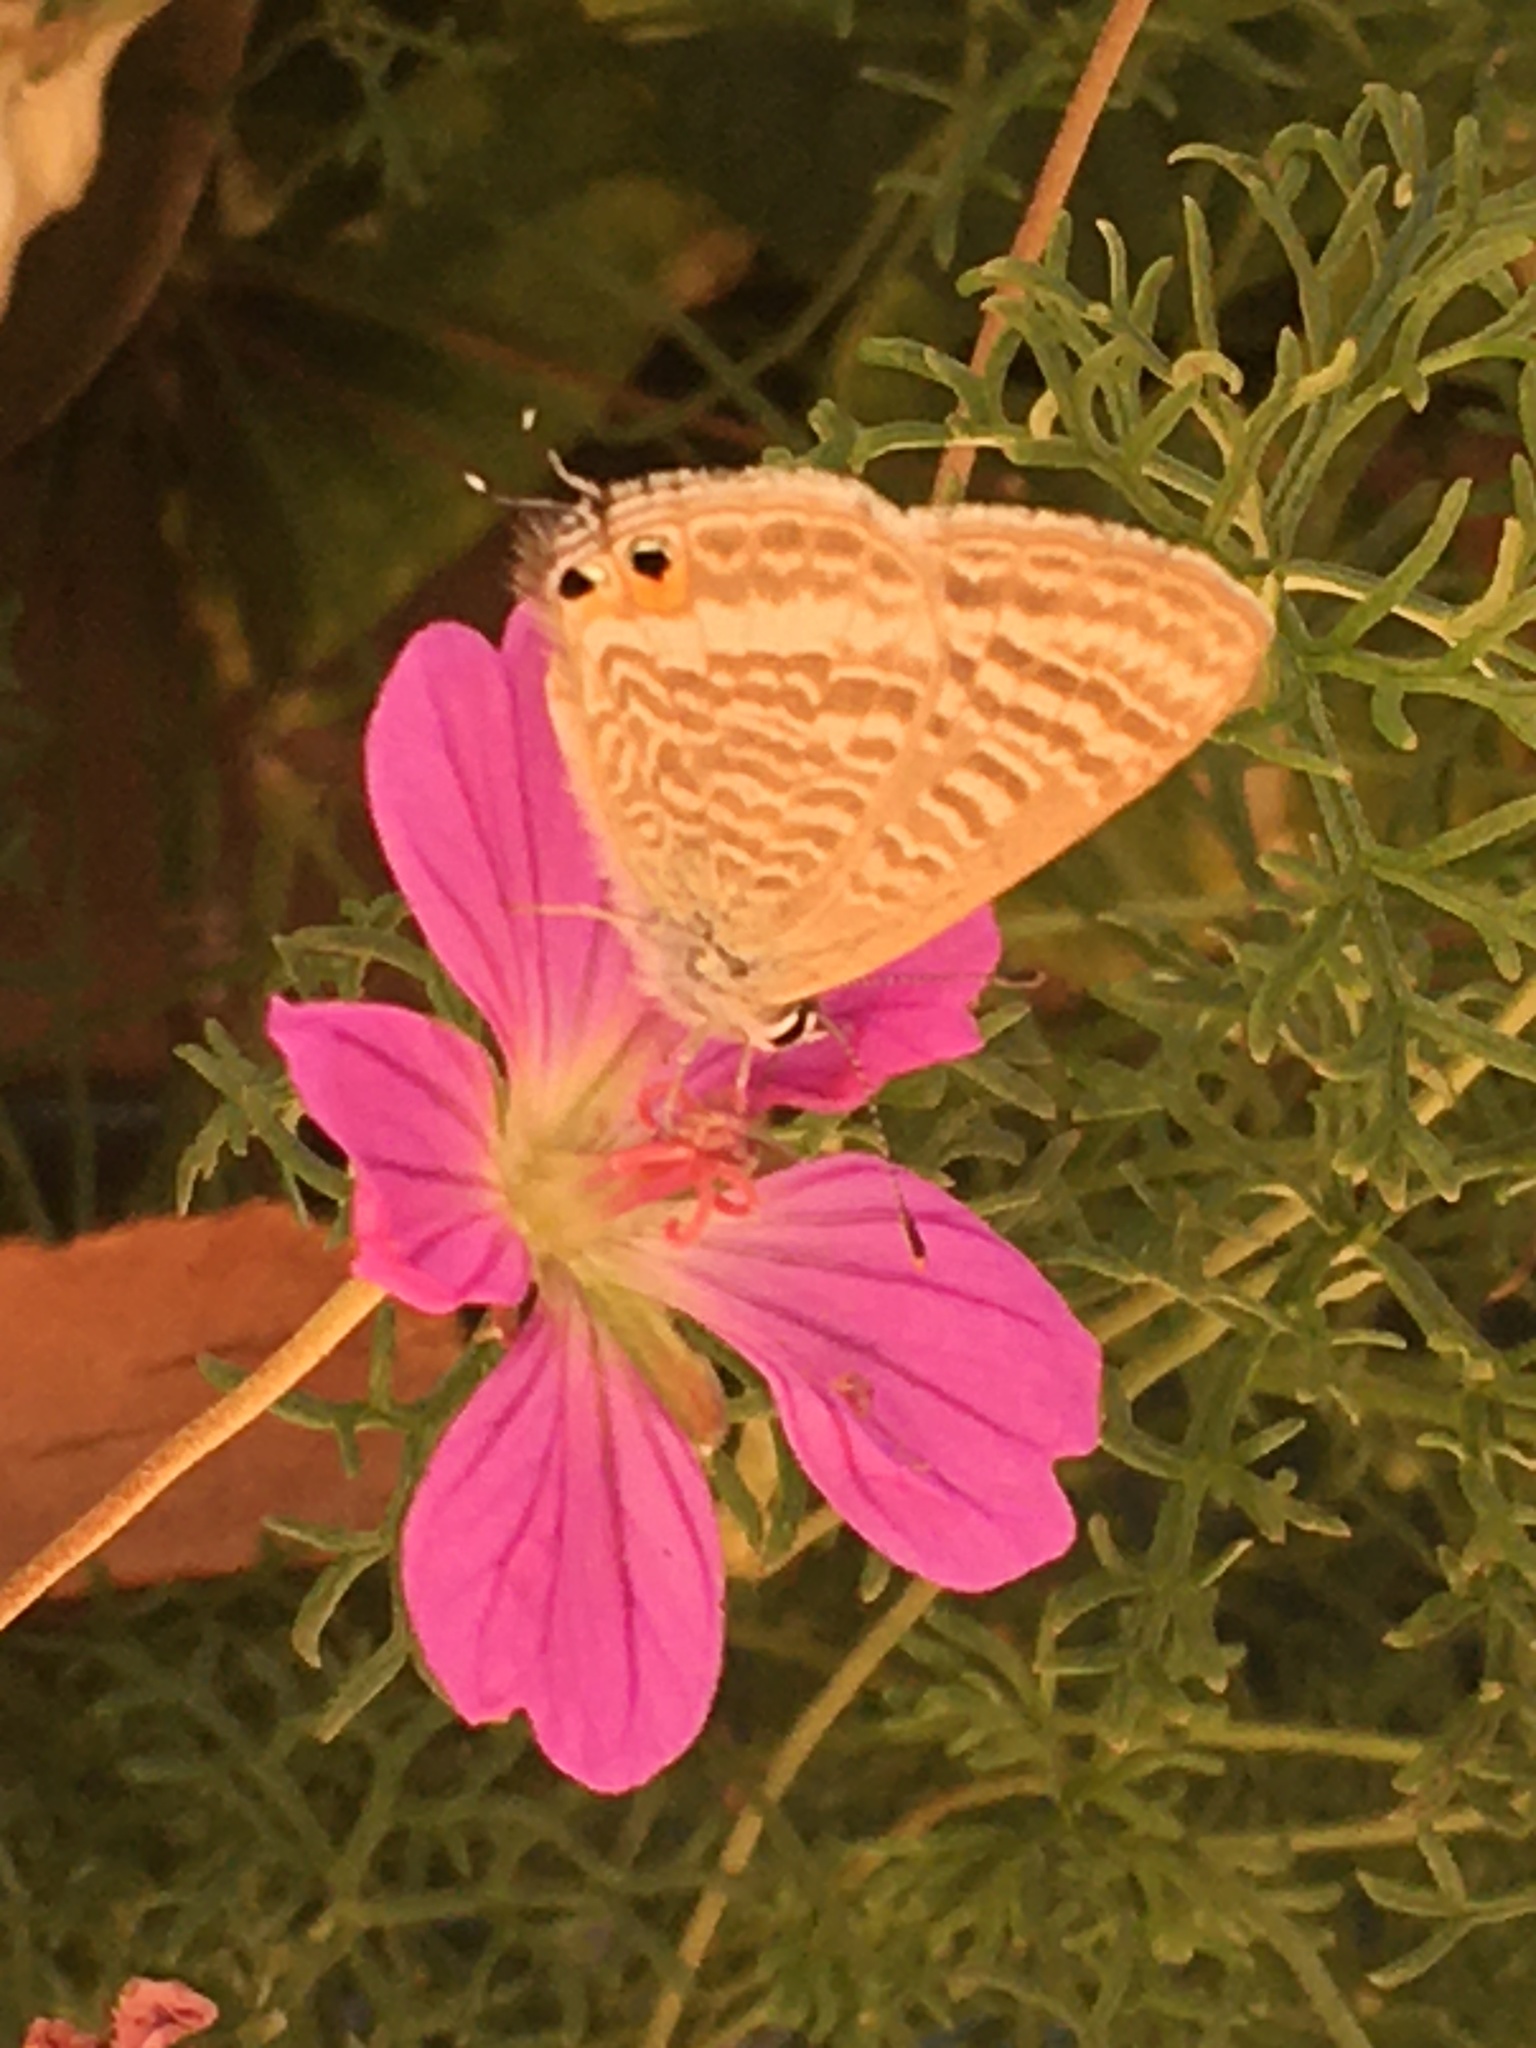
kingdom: Animalia
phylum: Arthropoda
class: Insecta
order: Lepidoptera
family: Lycaenidae
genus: Lampides
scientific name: Lampides boeticus
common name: Long-tailed blue
